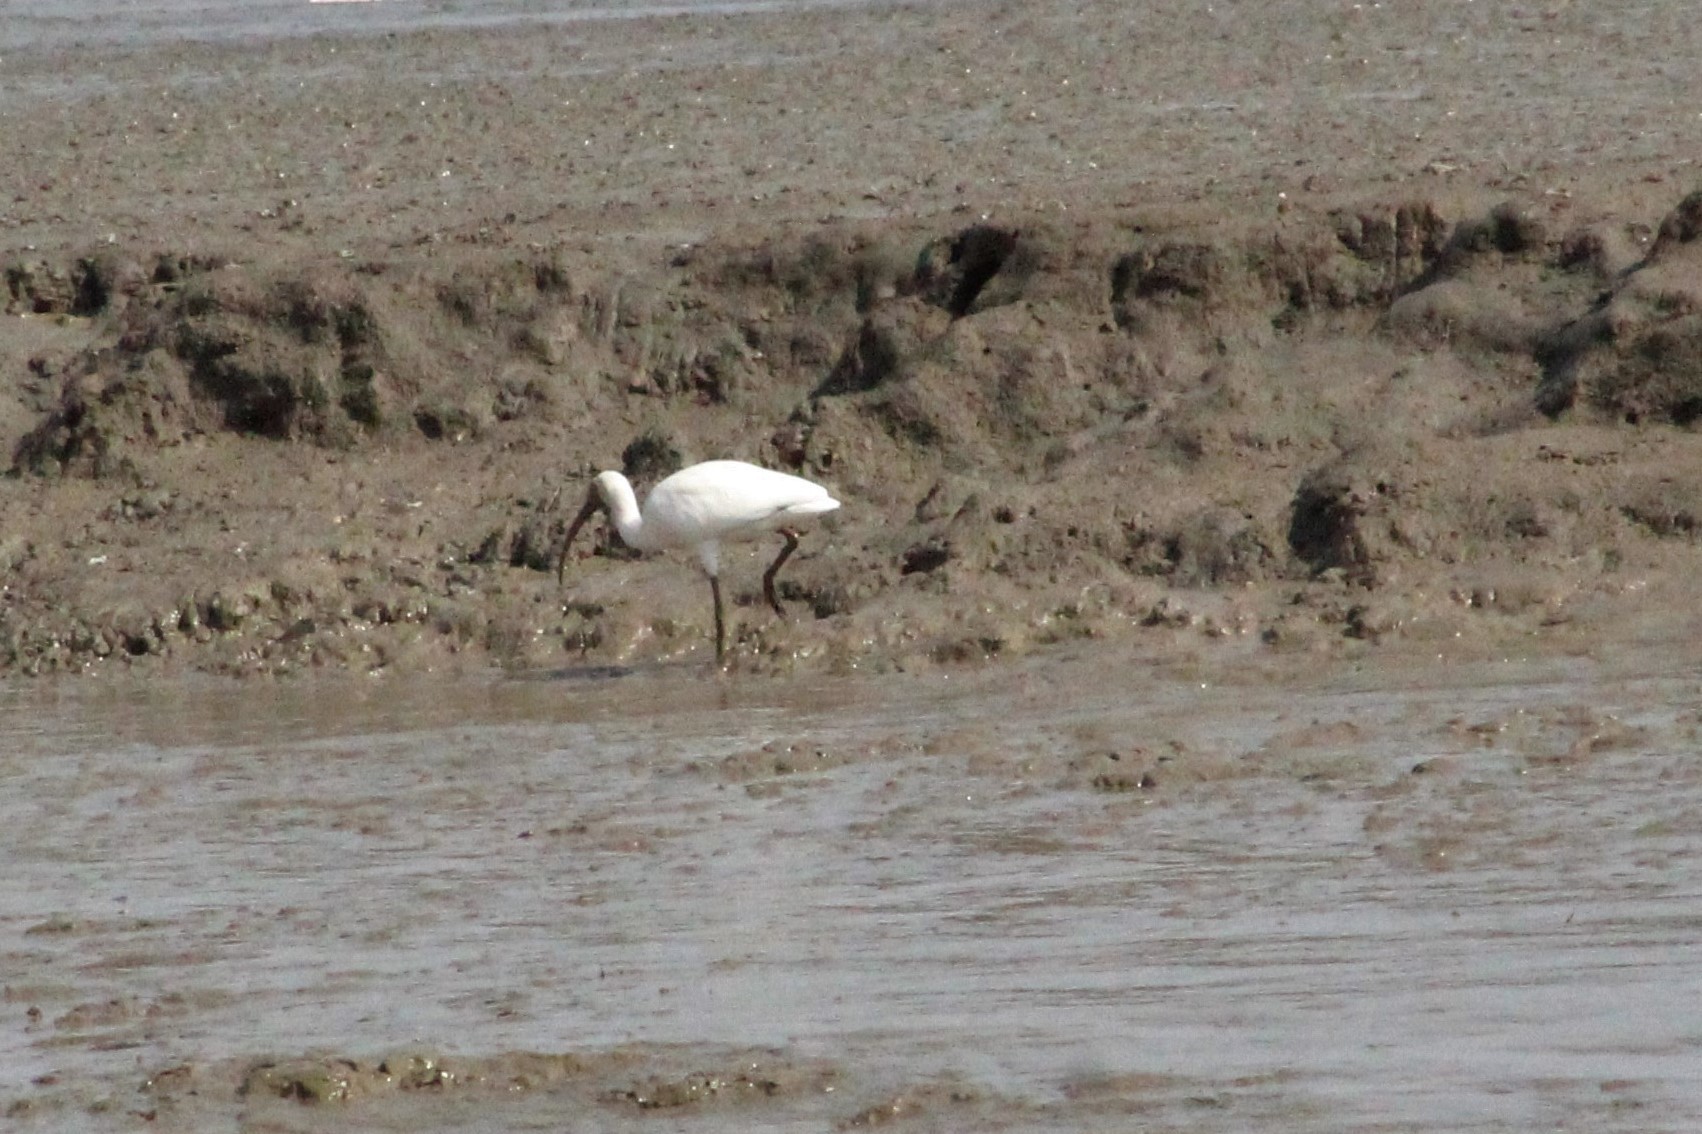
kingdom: Animalia
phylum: Chordata
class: Aves
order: Pelecaniformes
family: Threskiornithidae
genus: Eudocimus
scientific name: Eudocimus albus
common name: White ibis
